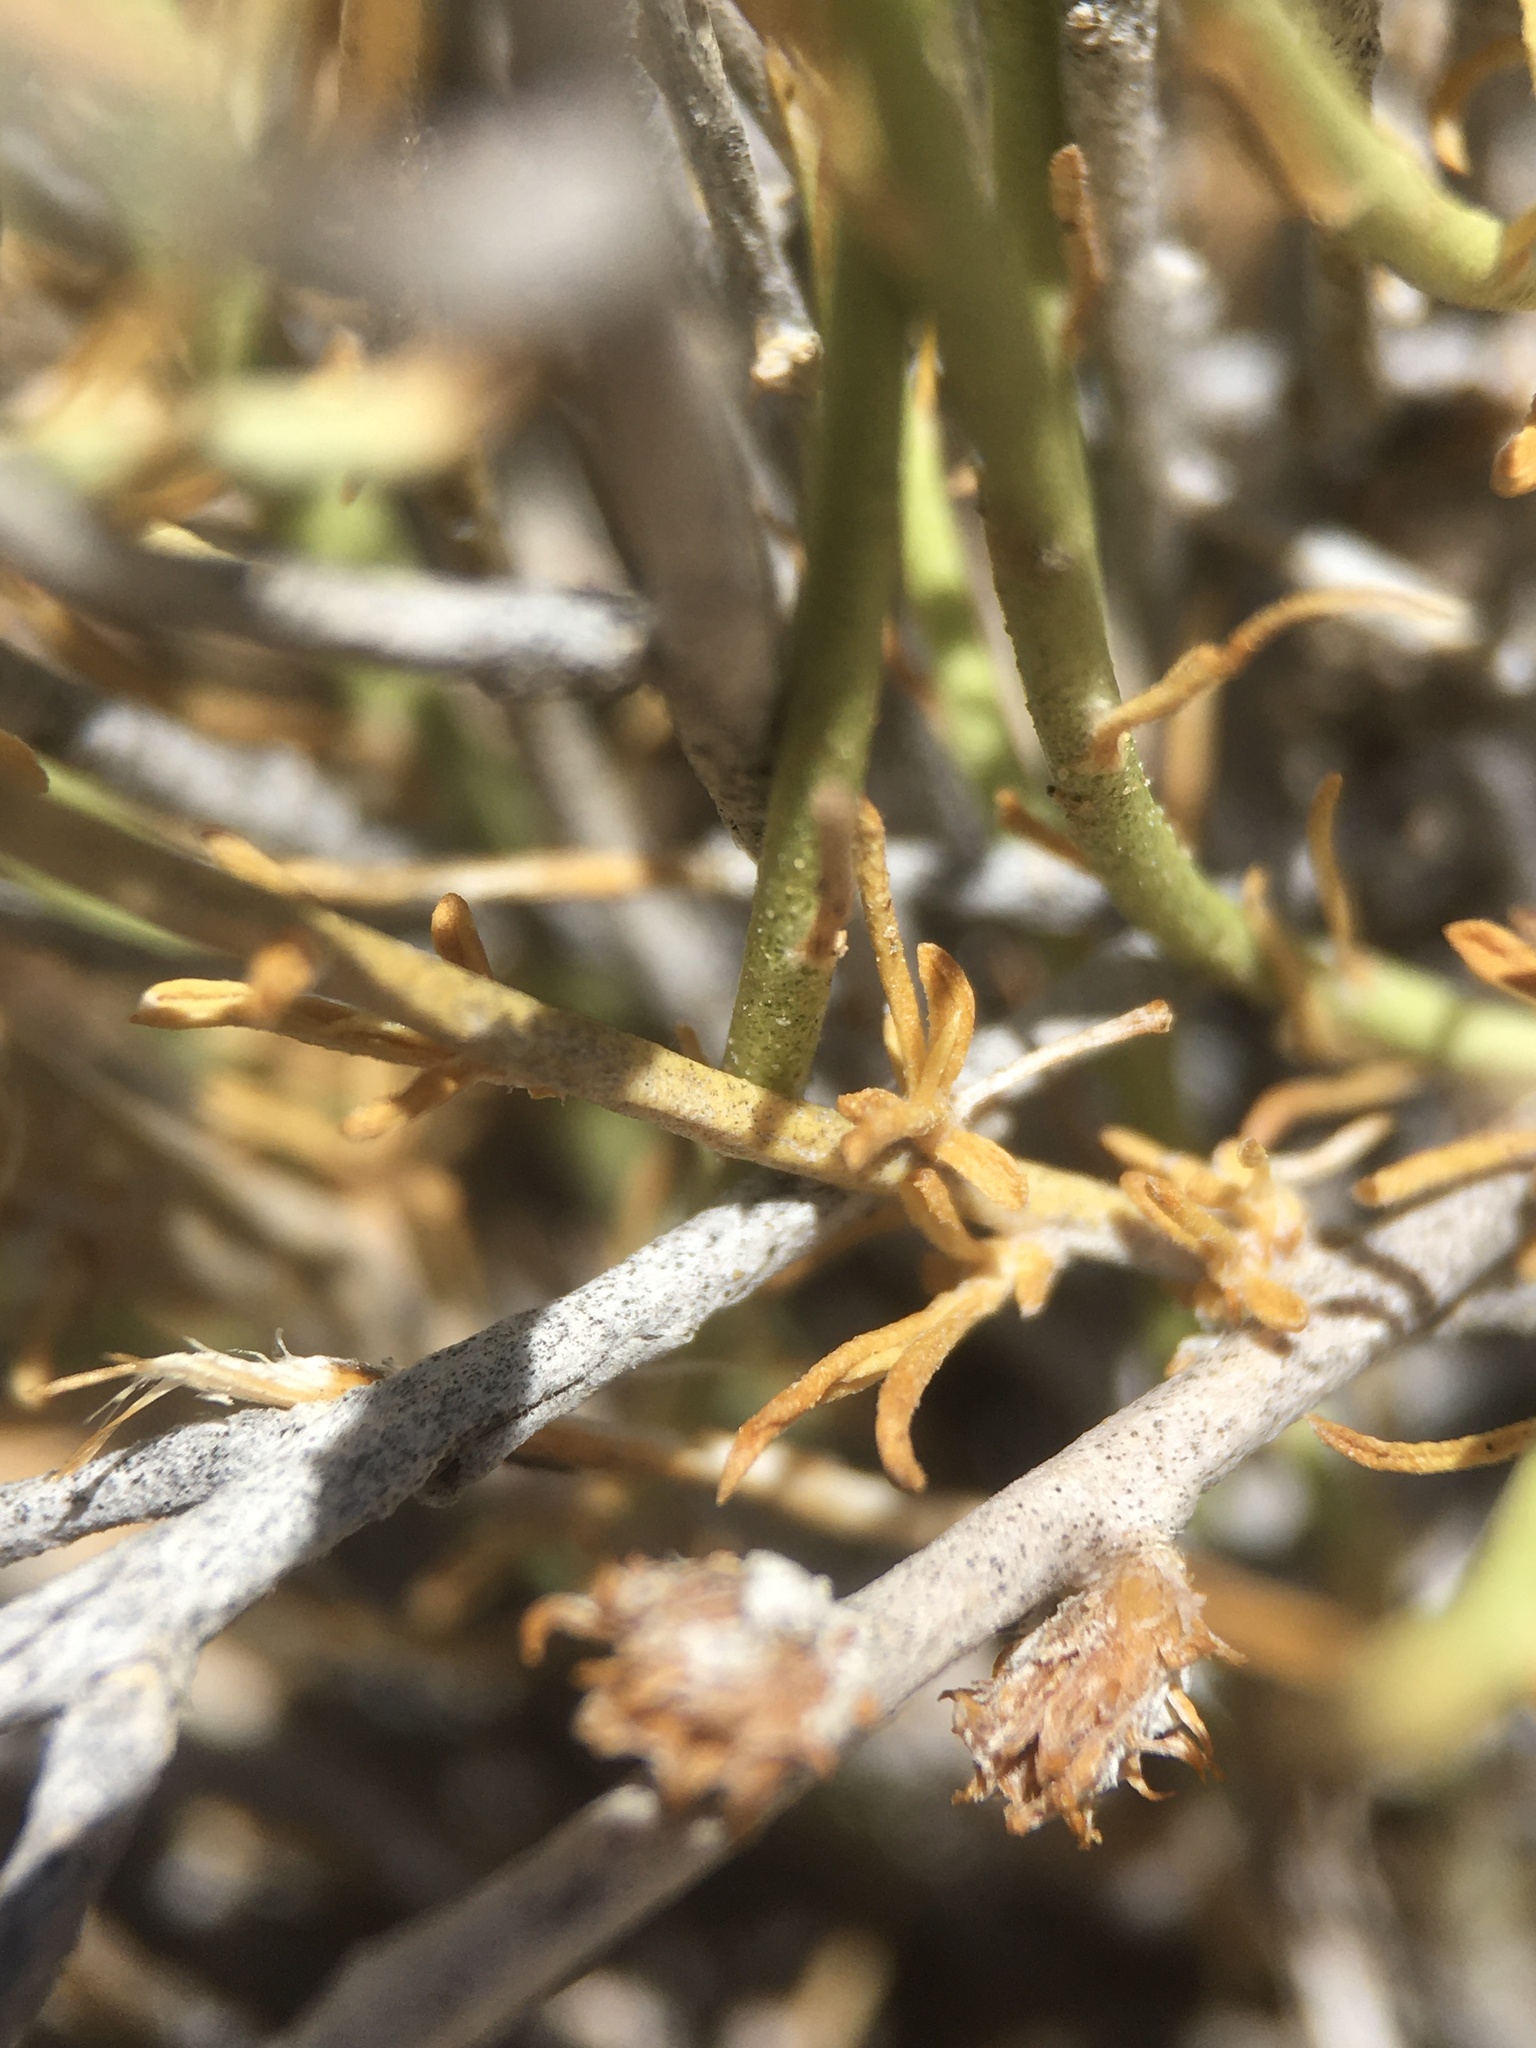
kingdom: Plantae
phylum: Tracheophyta
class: Magnoliopsida
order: Asterales
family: Asteraceae
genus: Ericameria
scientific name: Ericameria nauseosa
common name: Rubber rabbitbrush
